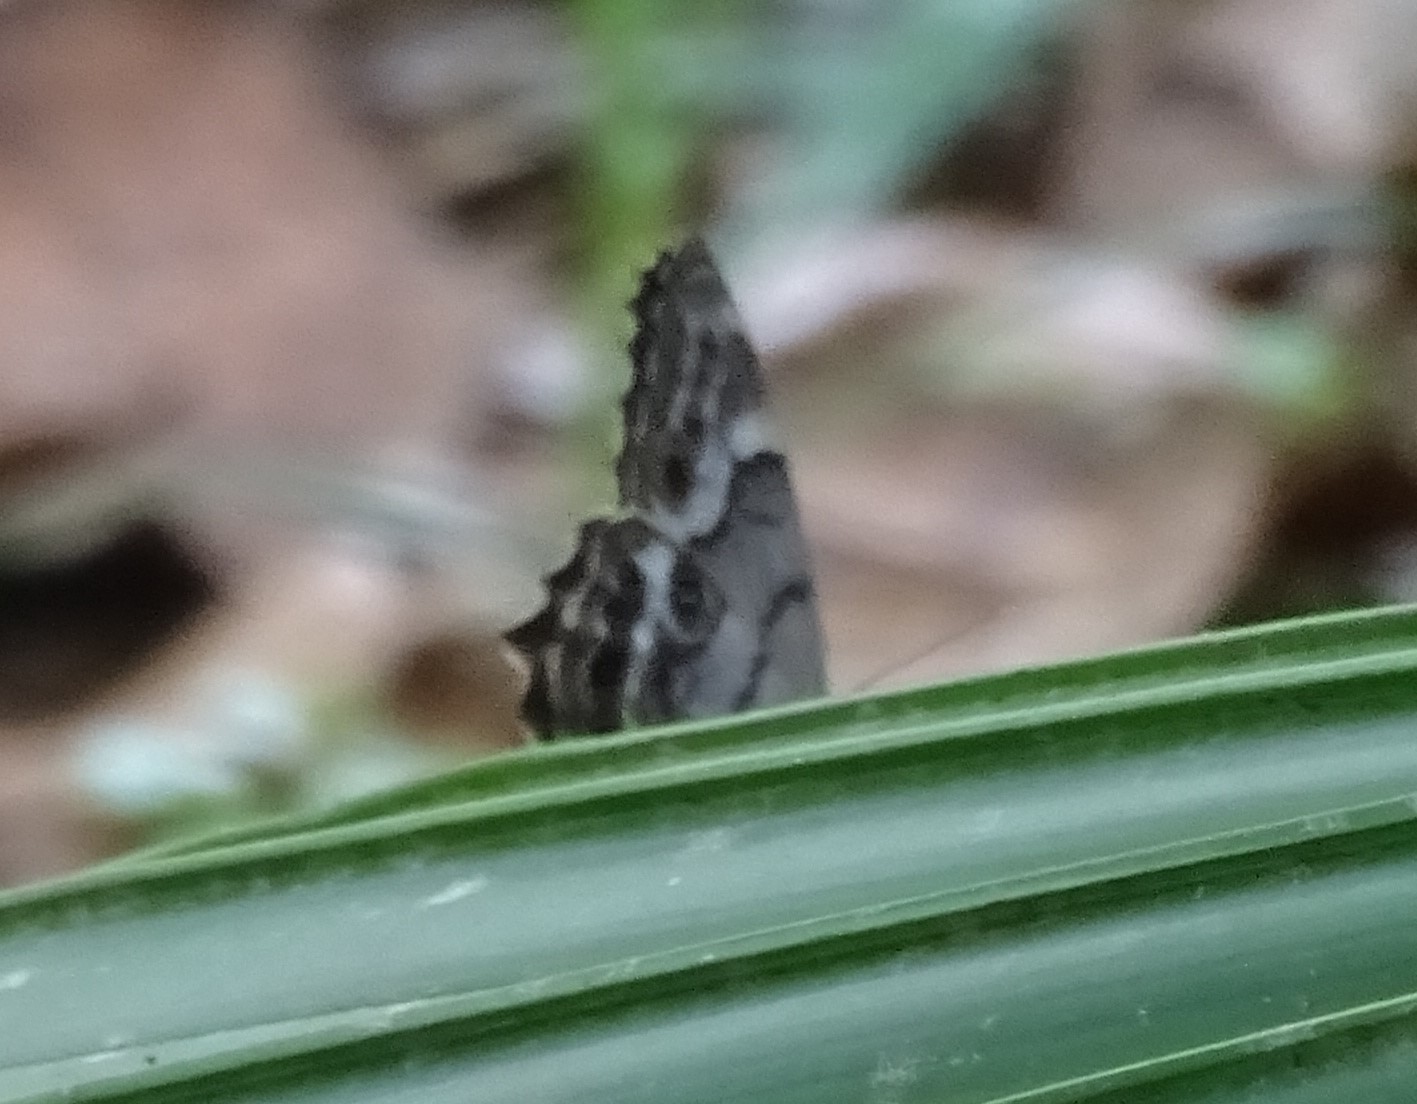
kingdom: Animalia
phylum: Arthropoda
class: Insecta
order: Lepidoptera
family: Nymphalidae
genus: Enodia
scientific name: Enodia portlandia
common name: Southern pearly-eye
